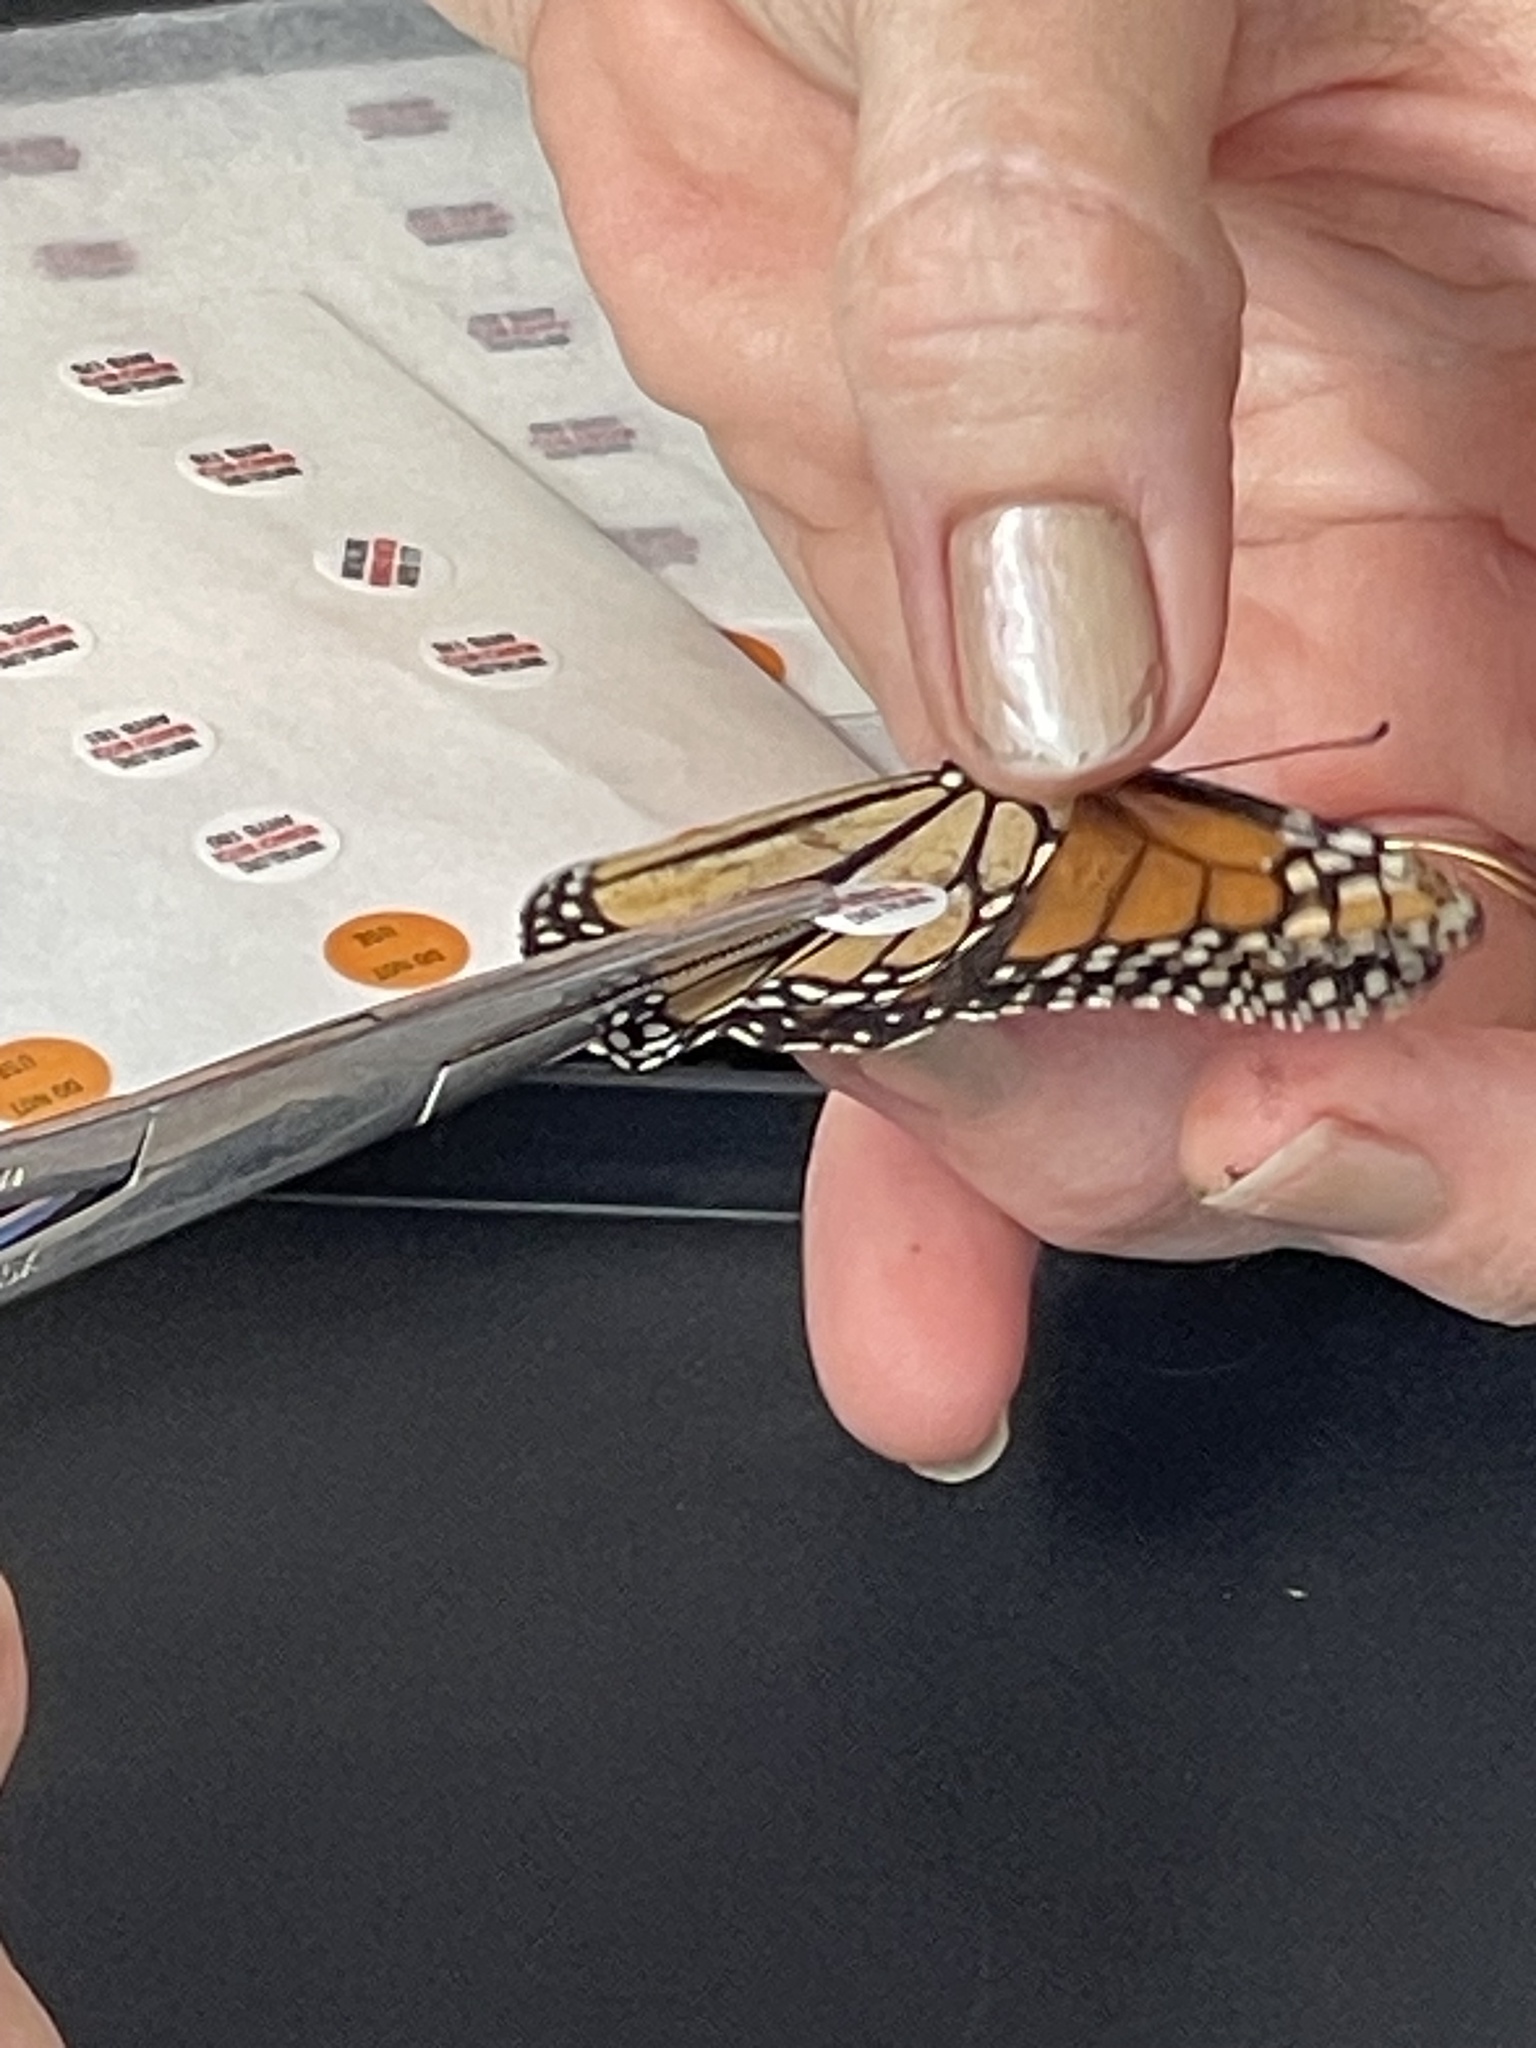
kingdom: Animalia
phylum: Arthropoda
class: Insecta
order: Lepidoptera
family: Nymphalidae
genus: Danaus
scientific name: Danaus plexippus
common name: Monarch
